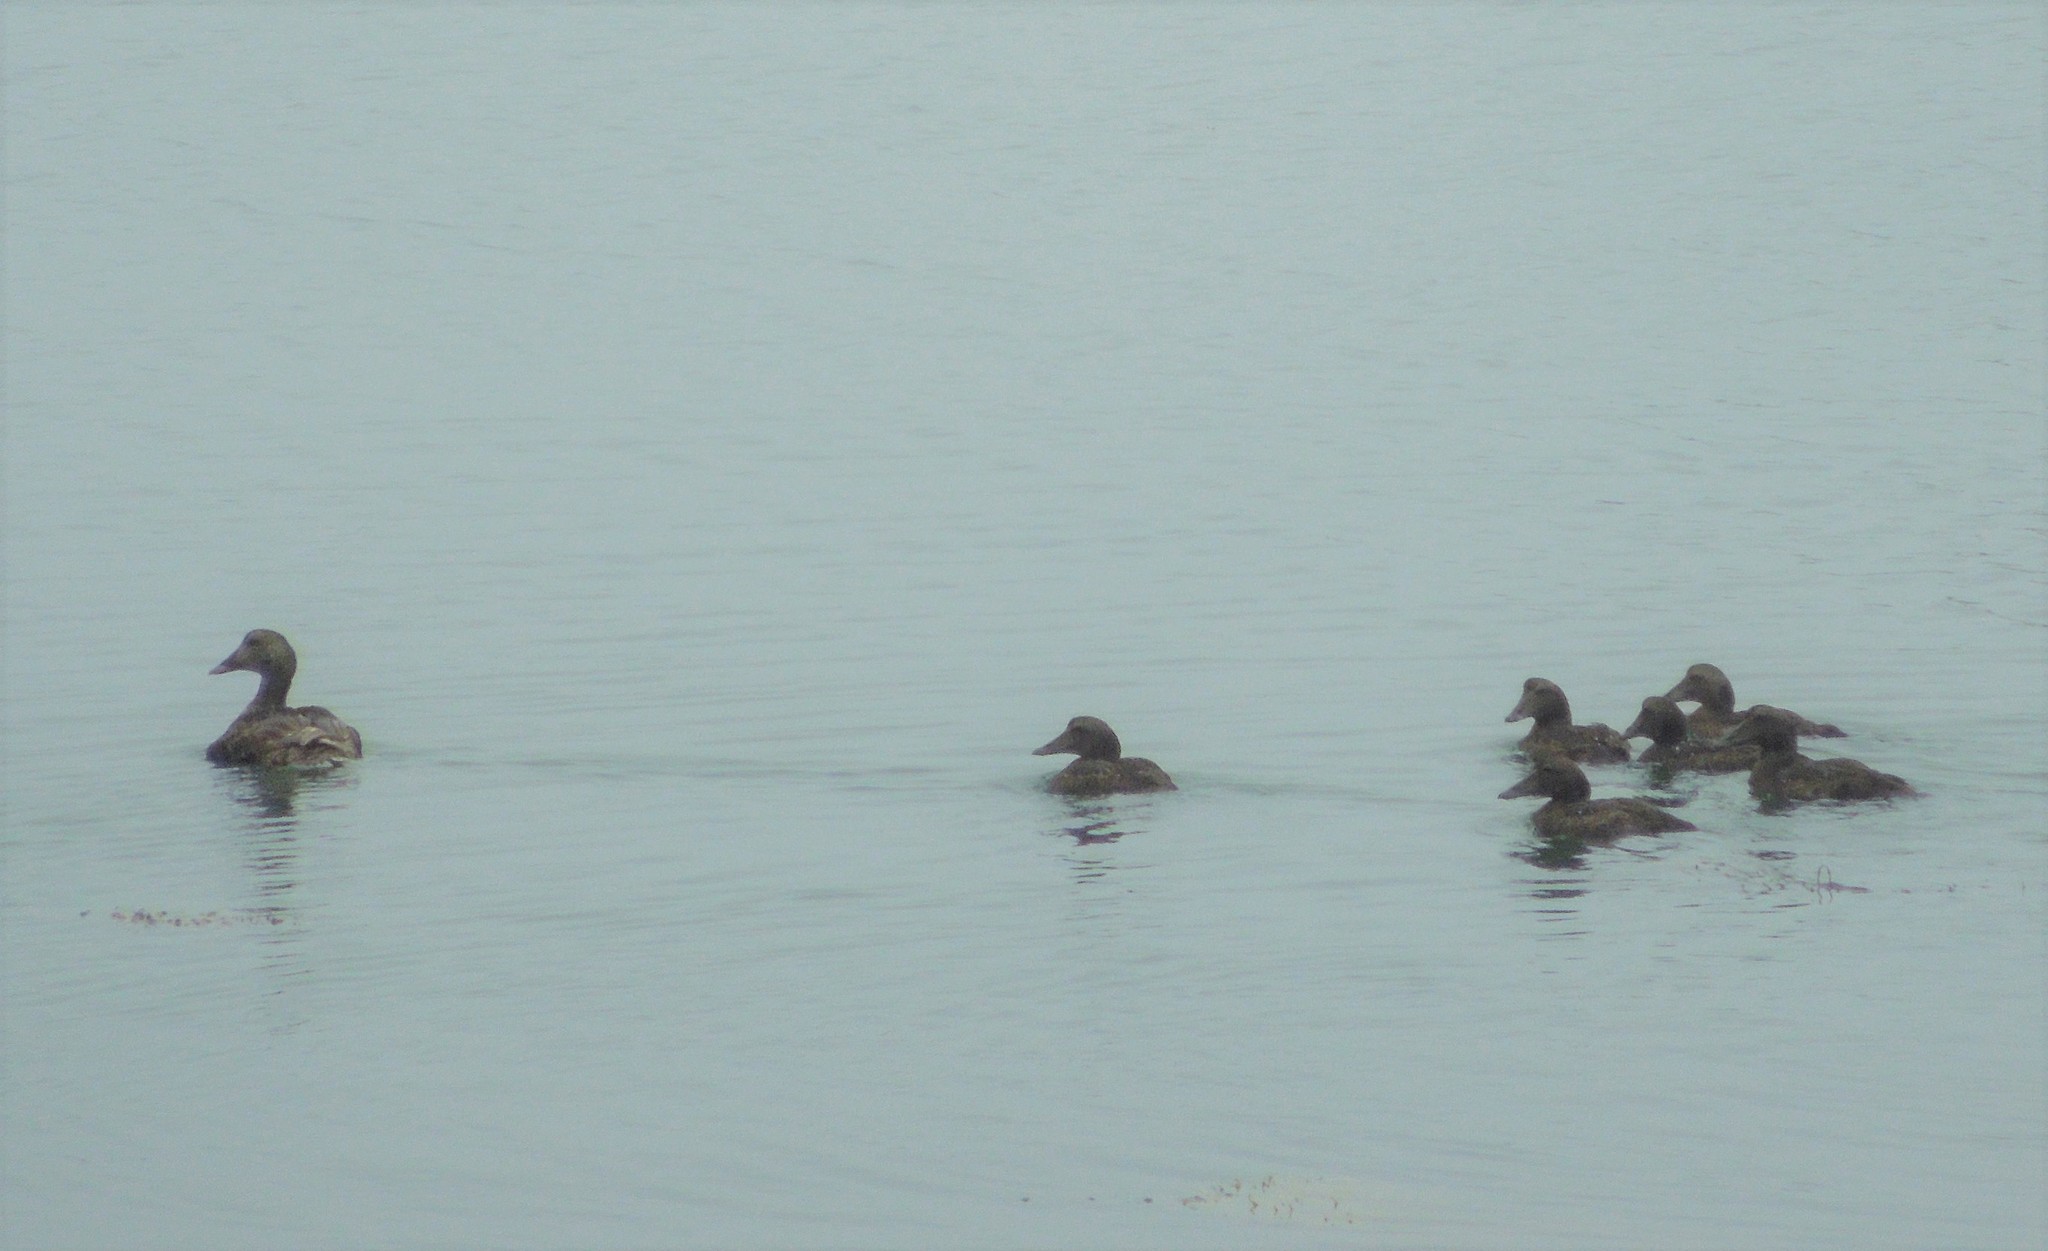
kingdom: Animalia
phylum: Chordata
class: Aves
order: Anseriformes
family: Anatidae
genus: Somateria
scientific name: Somateria mollissima
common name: Common eider
